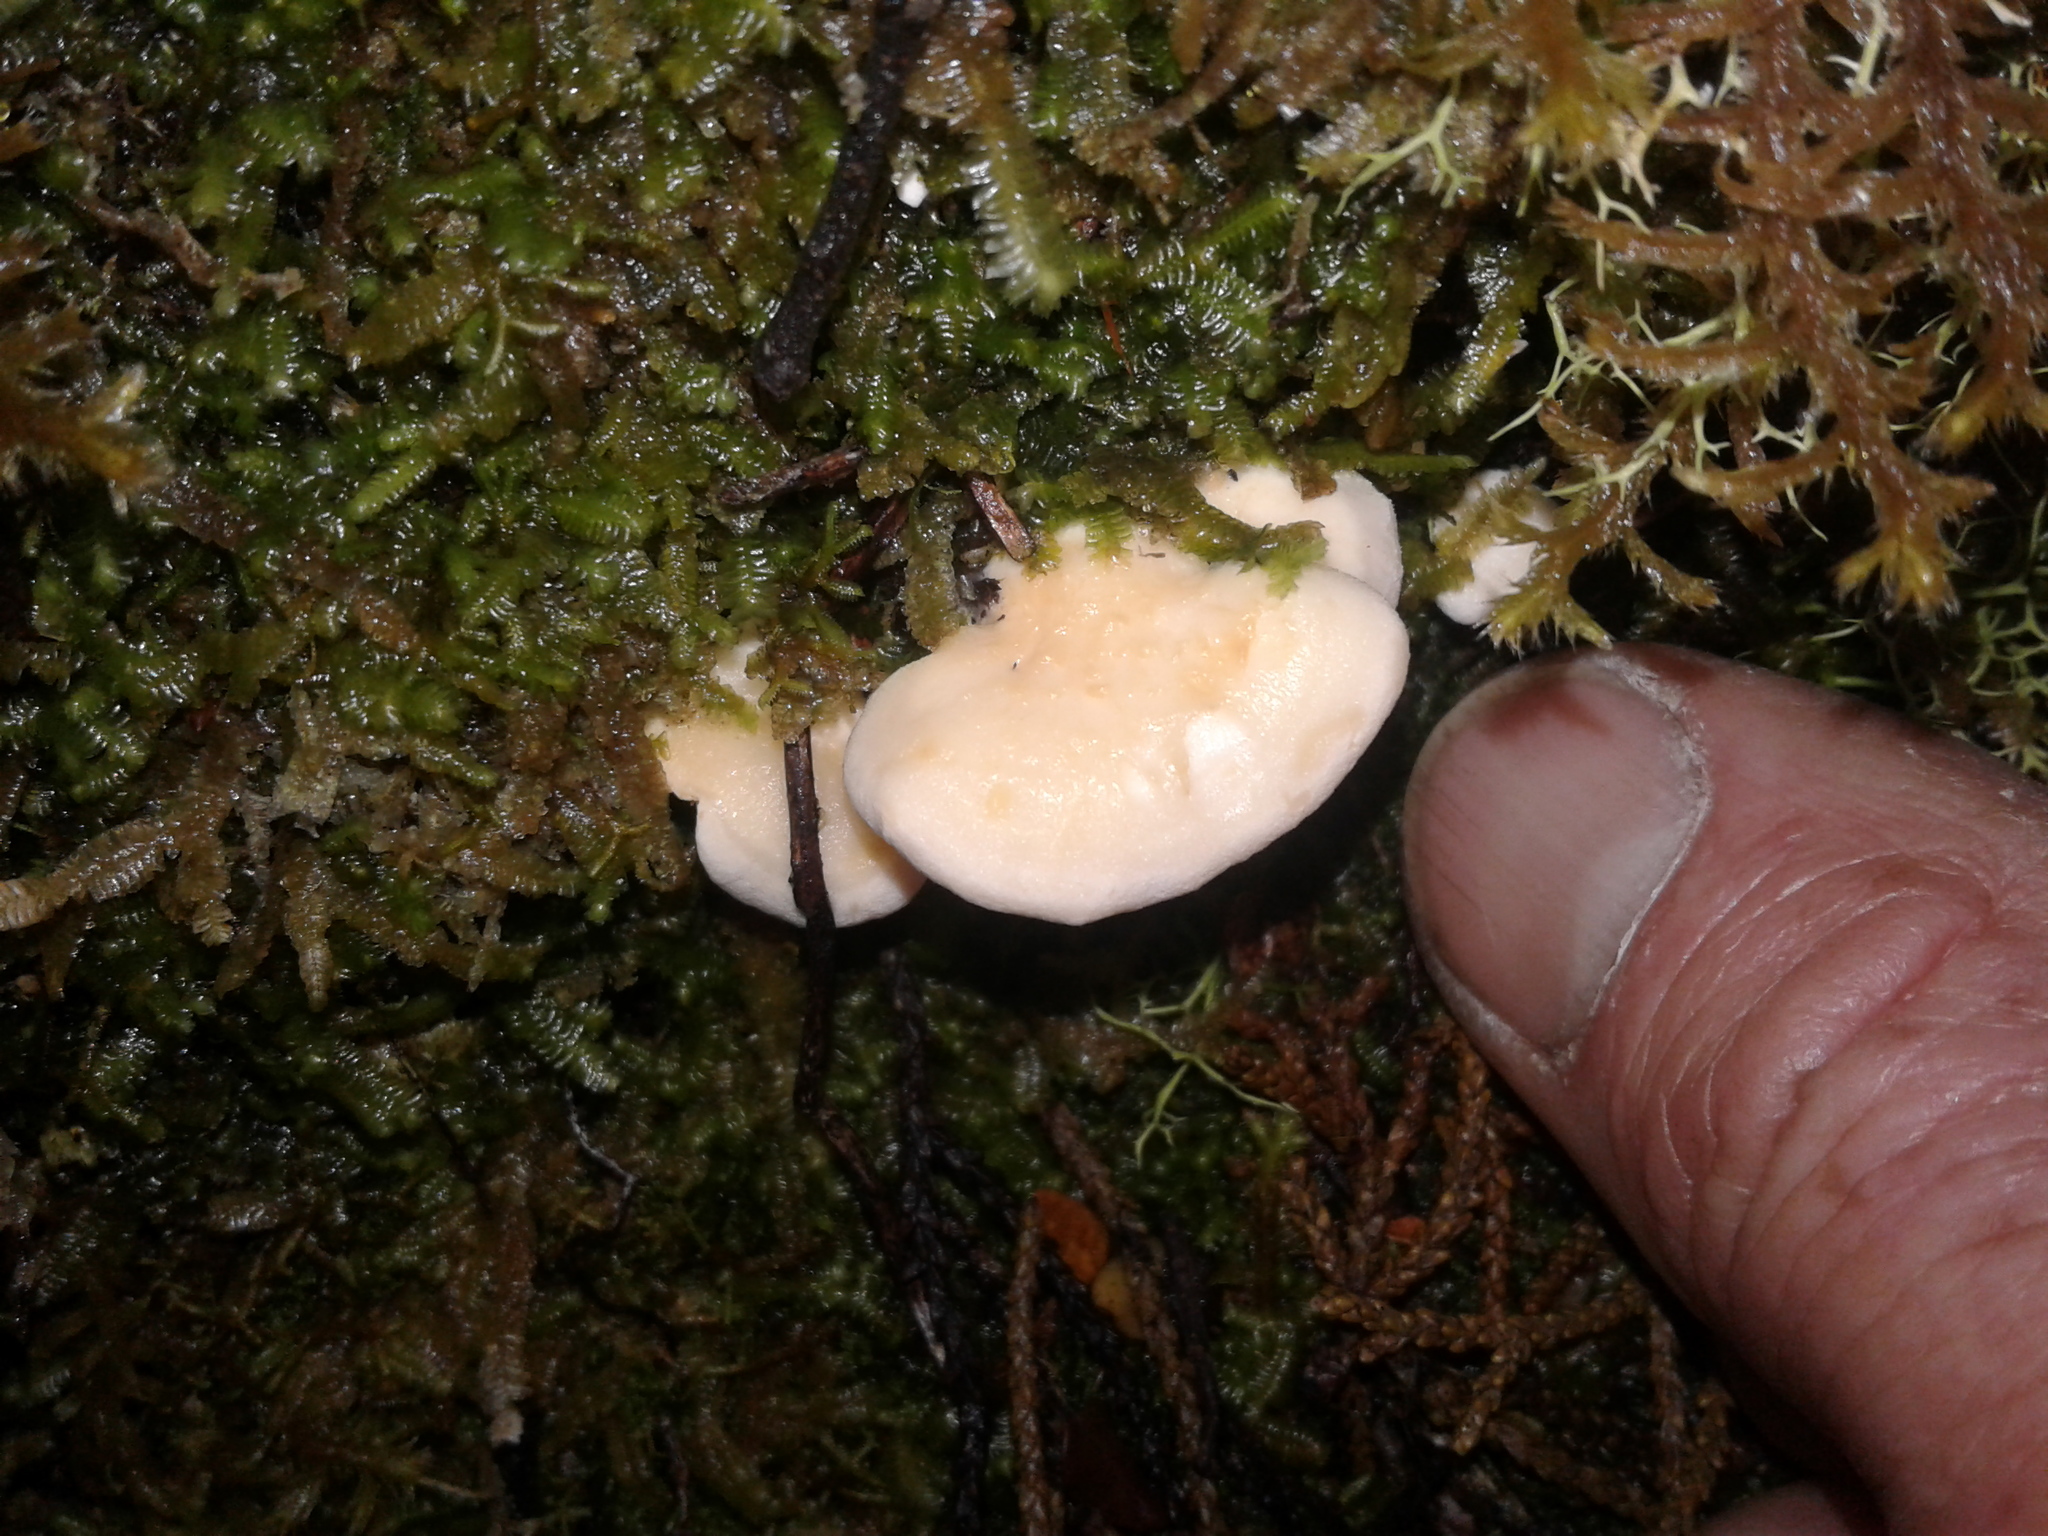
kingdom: Fungi
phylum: Basidiomycota
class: Agaricomycetes
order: Cantharellales
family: Hydnaceae
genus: Hydnum
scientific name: Hydnum ambustum
